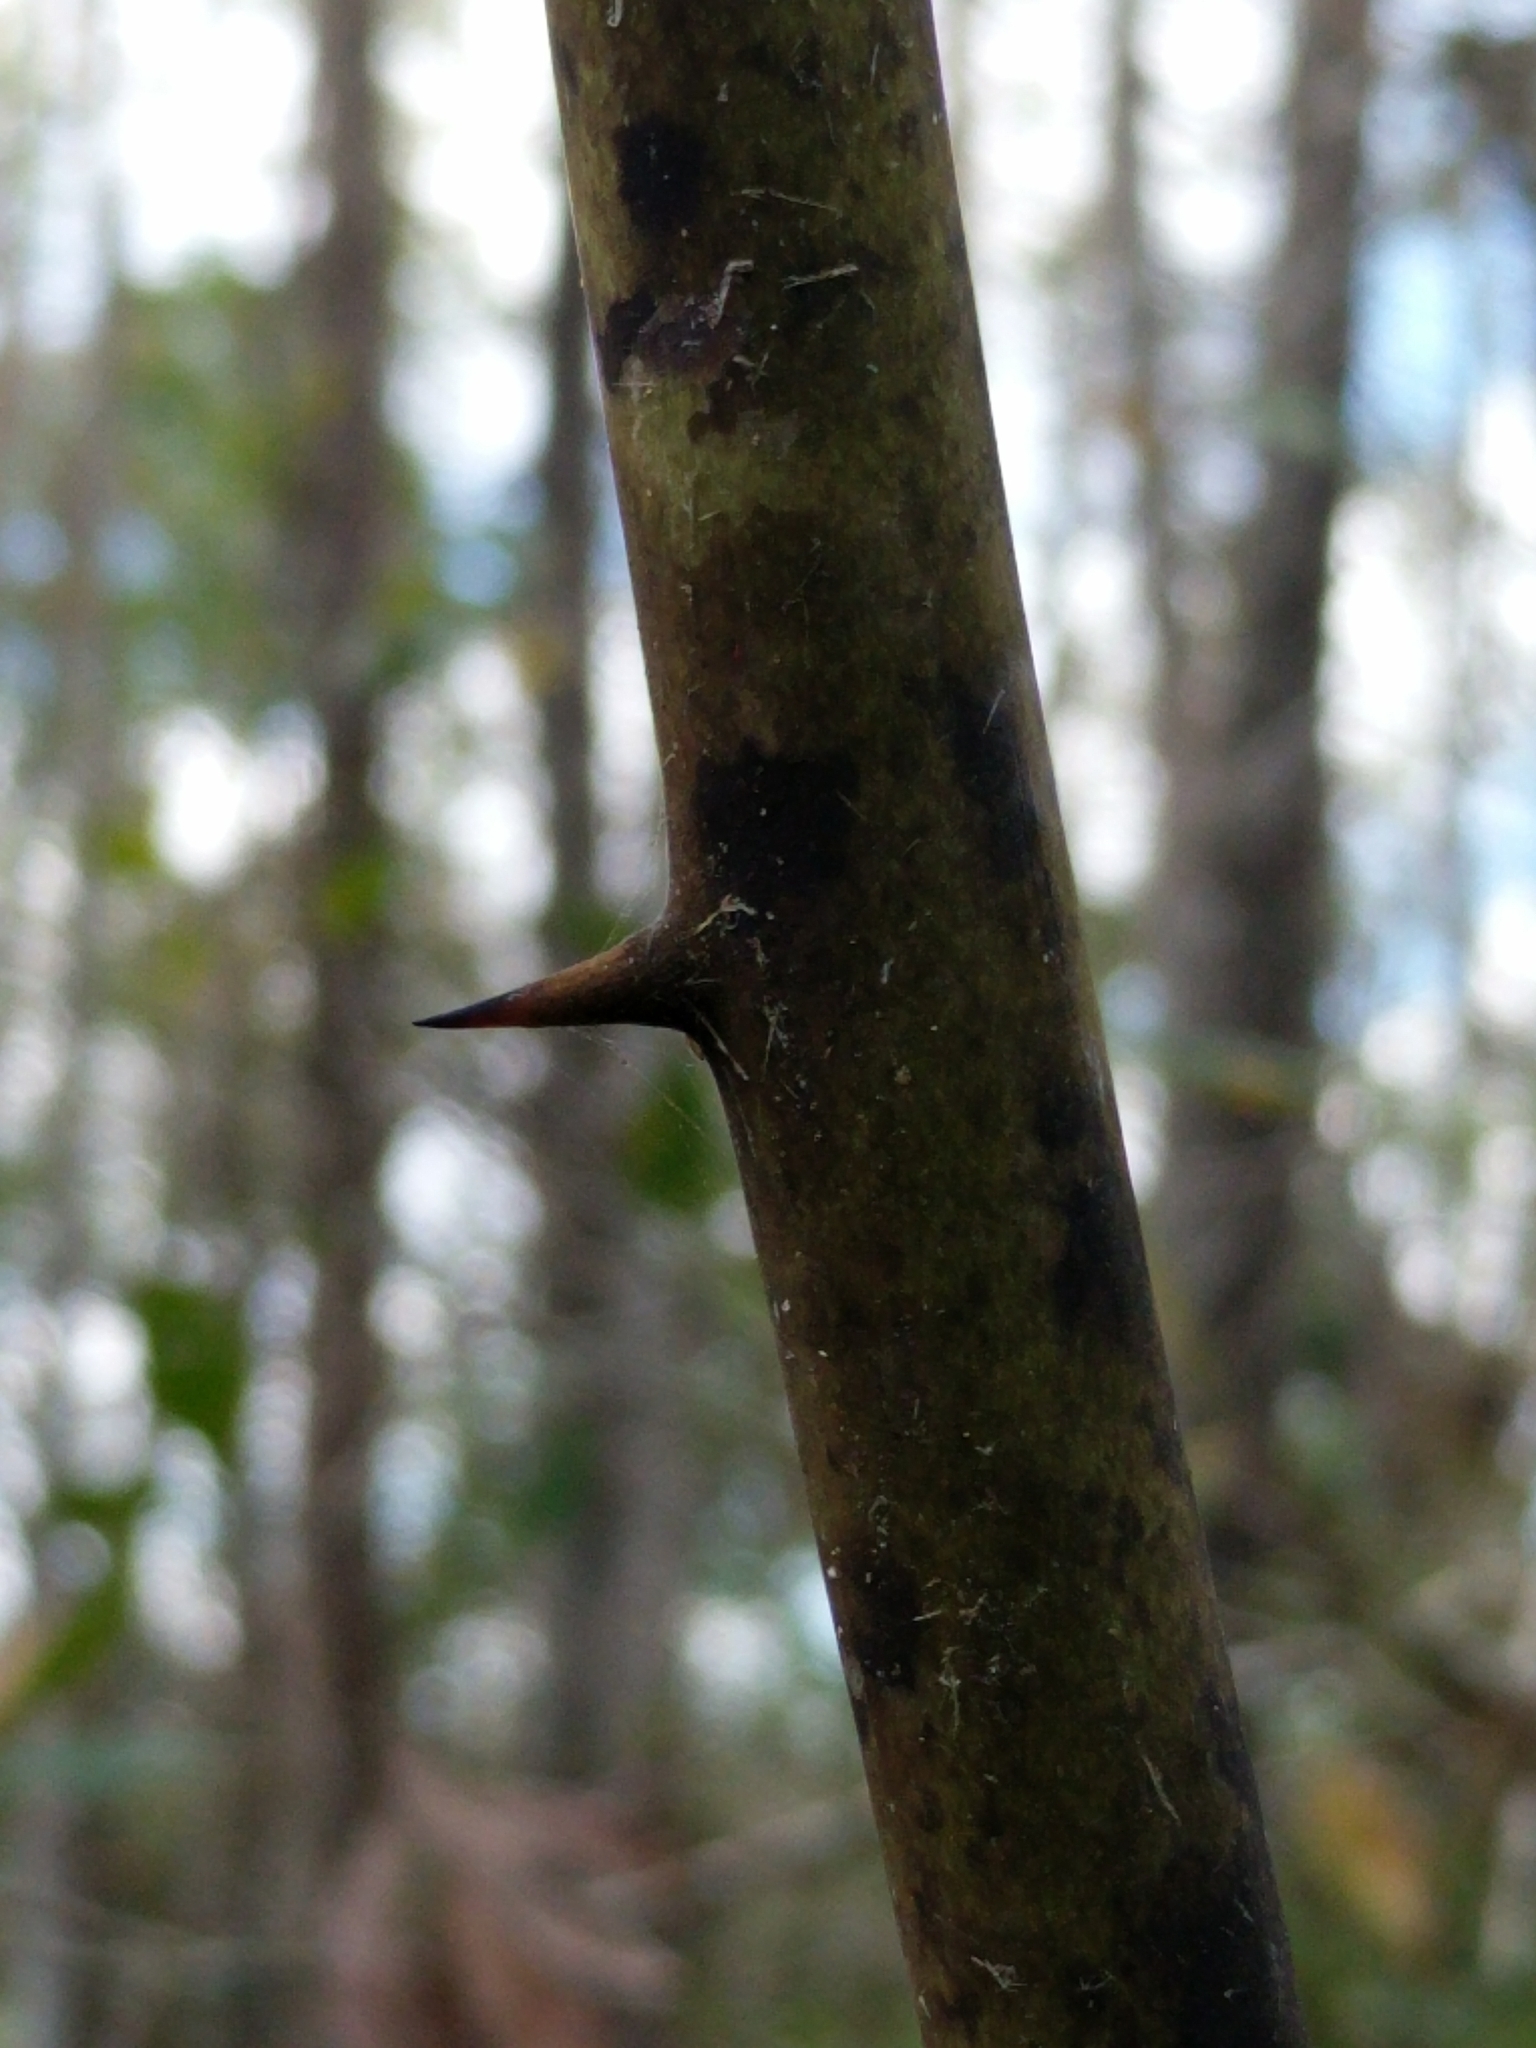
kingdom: Plantae
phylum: Tracheophyta
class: Liliopsida
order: Liliales
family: Smilacaceae
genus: Smilax
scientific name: Smilax laurifolia
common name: Bamboovine
